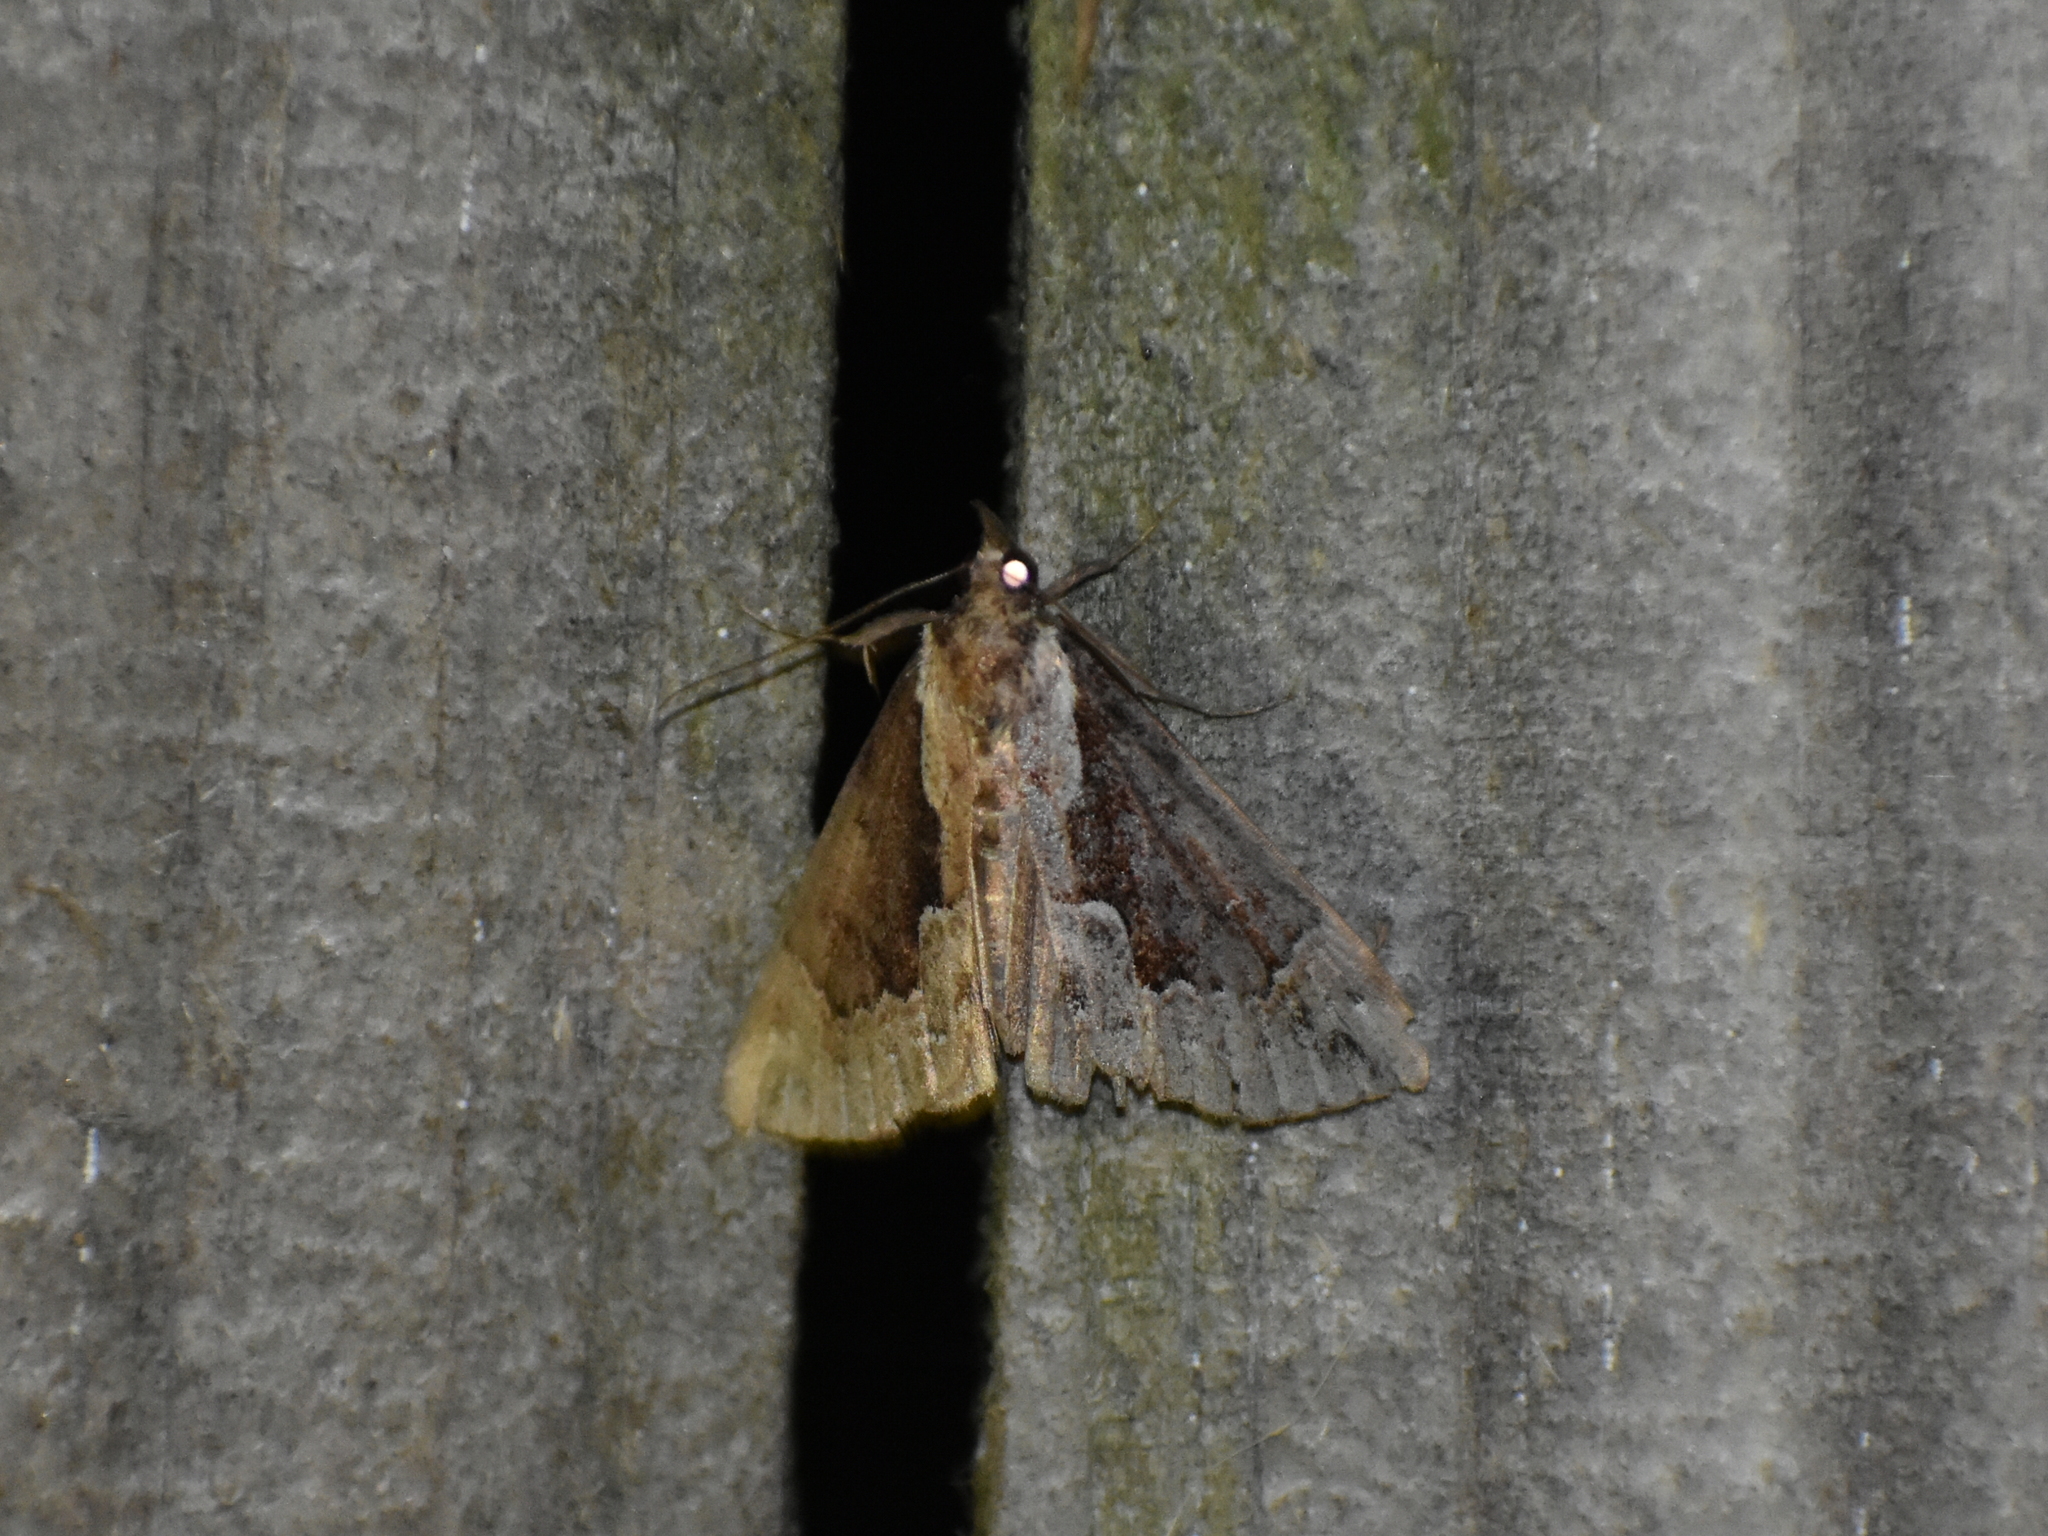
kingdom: Animalia
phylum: Arthropoda
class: Insecta
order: Lepidoptera
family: Erebidae
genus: Hypena
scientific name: Hypena baltimoralis
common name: Baltimore snout
